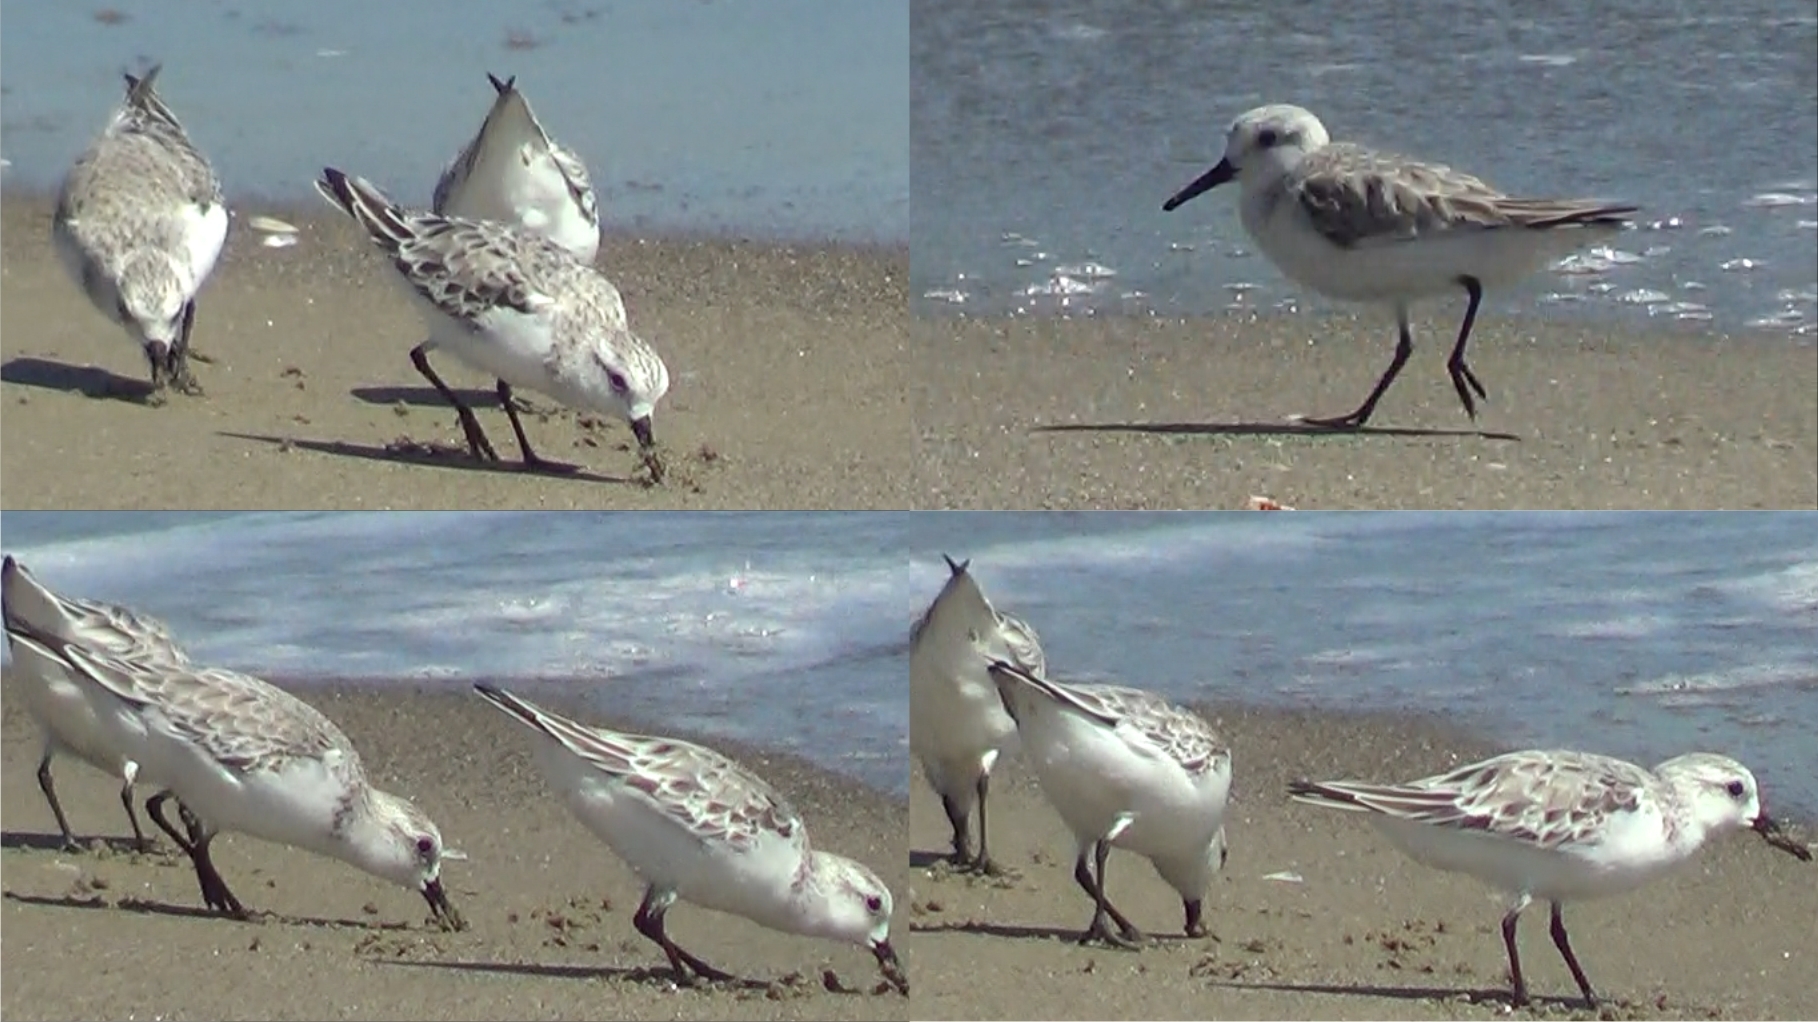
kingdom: Animalia
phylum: Chordata
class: Aves
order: Charadriiformes
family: Scolopacidae
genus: Calidris
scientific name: Calidris alba
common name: Sanderling
